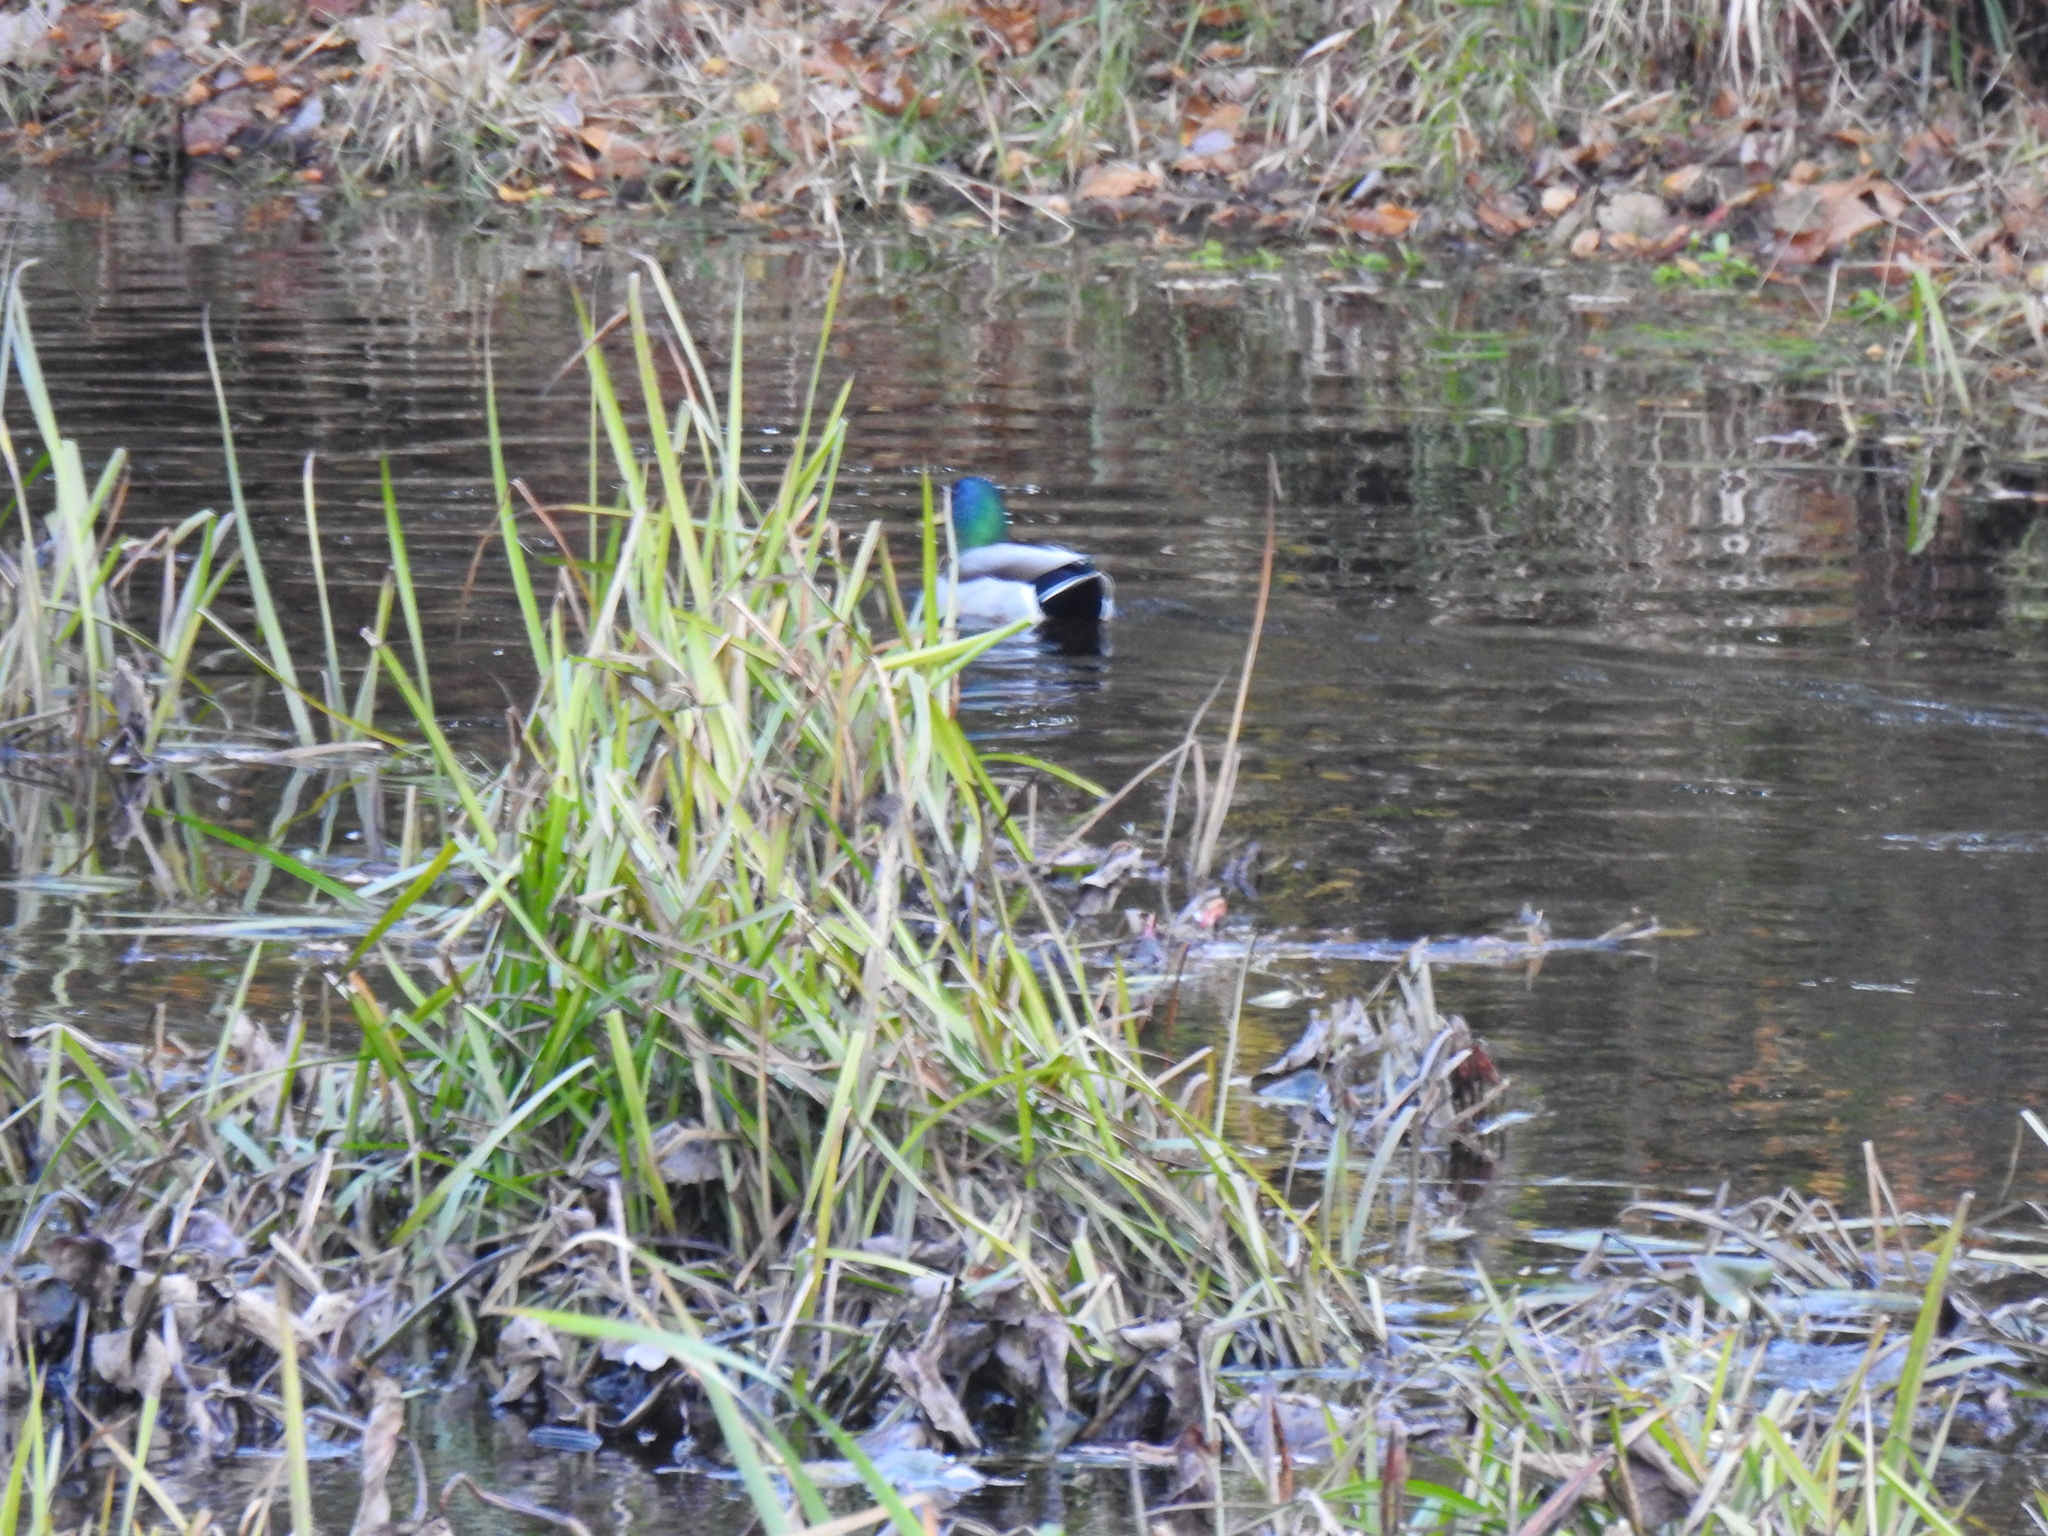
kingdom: Animalia
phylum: Chordata
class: Aves
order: Anseriformes
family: Anatidae
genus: Anas
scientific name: Anas platyrhynchos
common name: Mallard
